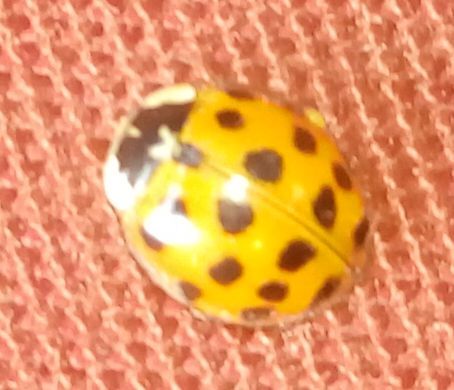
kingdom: Animalia
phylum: Arthropoda
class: Insecta
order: Coleoptera
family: Coccinellidae
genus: Harmonia
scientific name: Harmonia axyridis
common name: Harlequin ladybird
